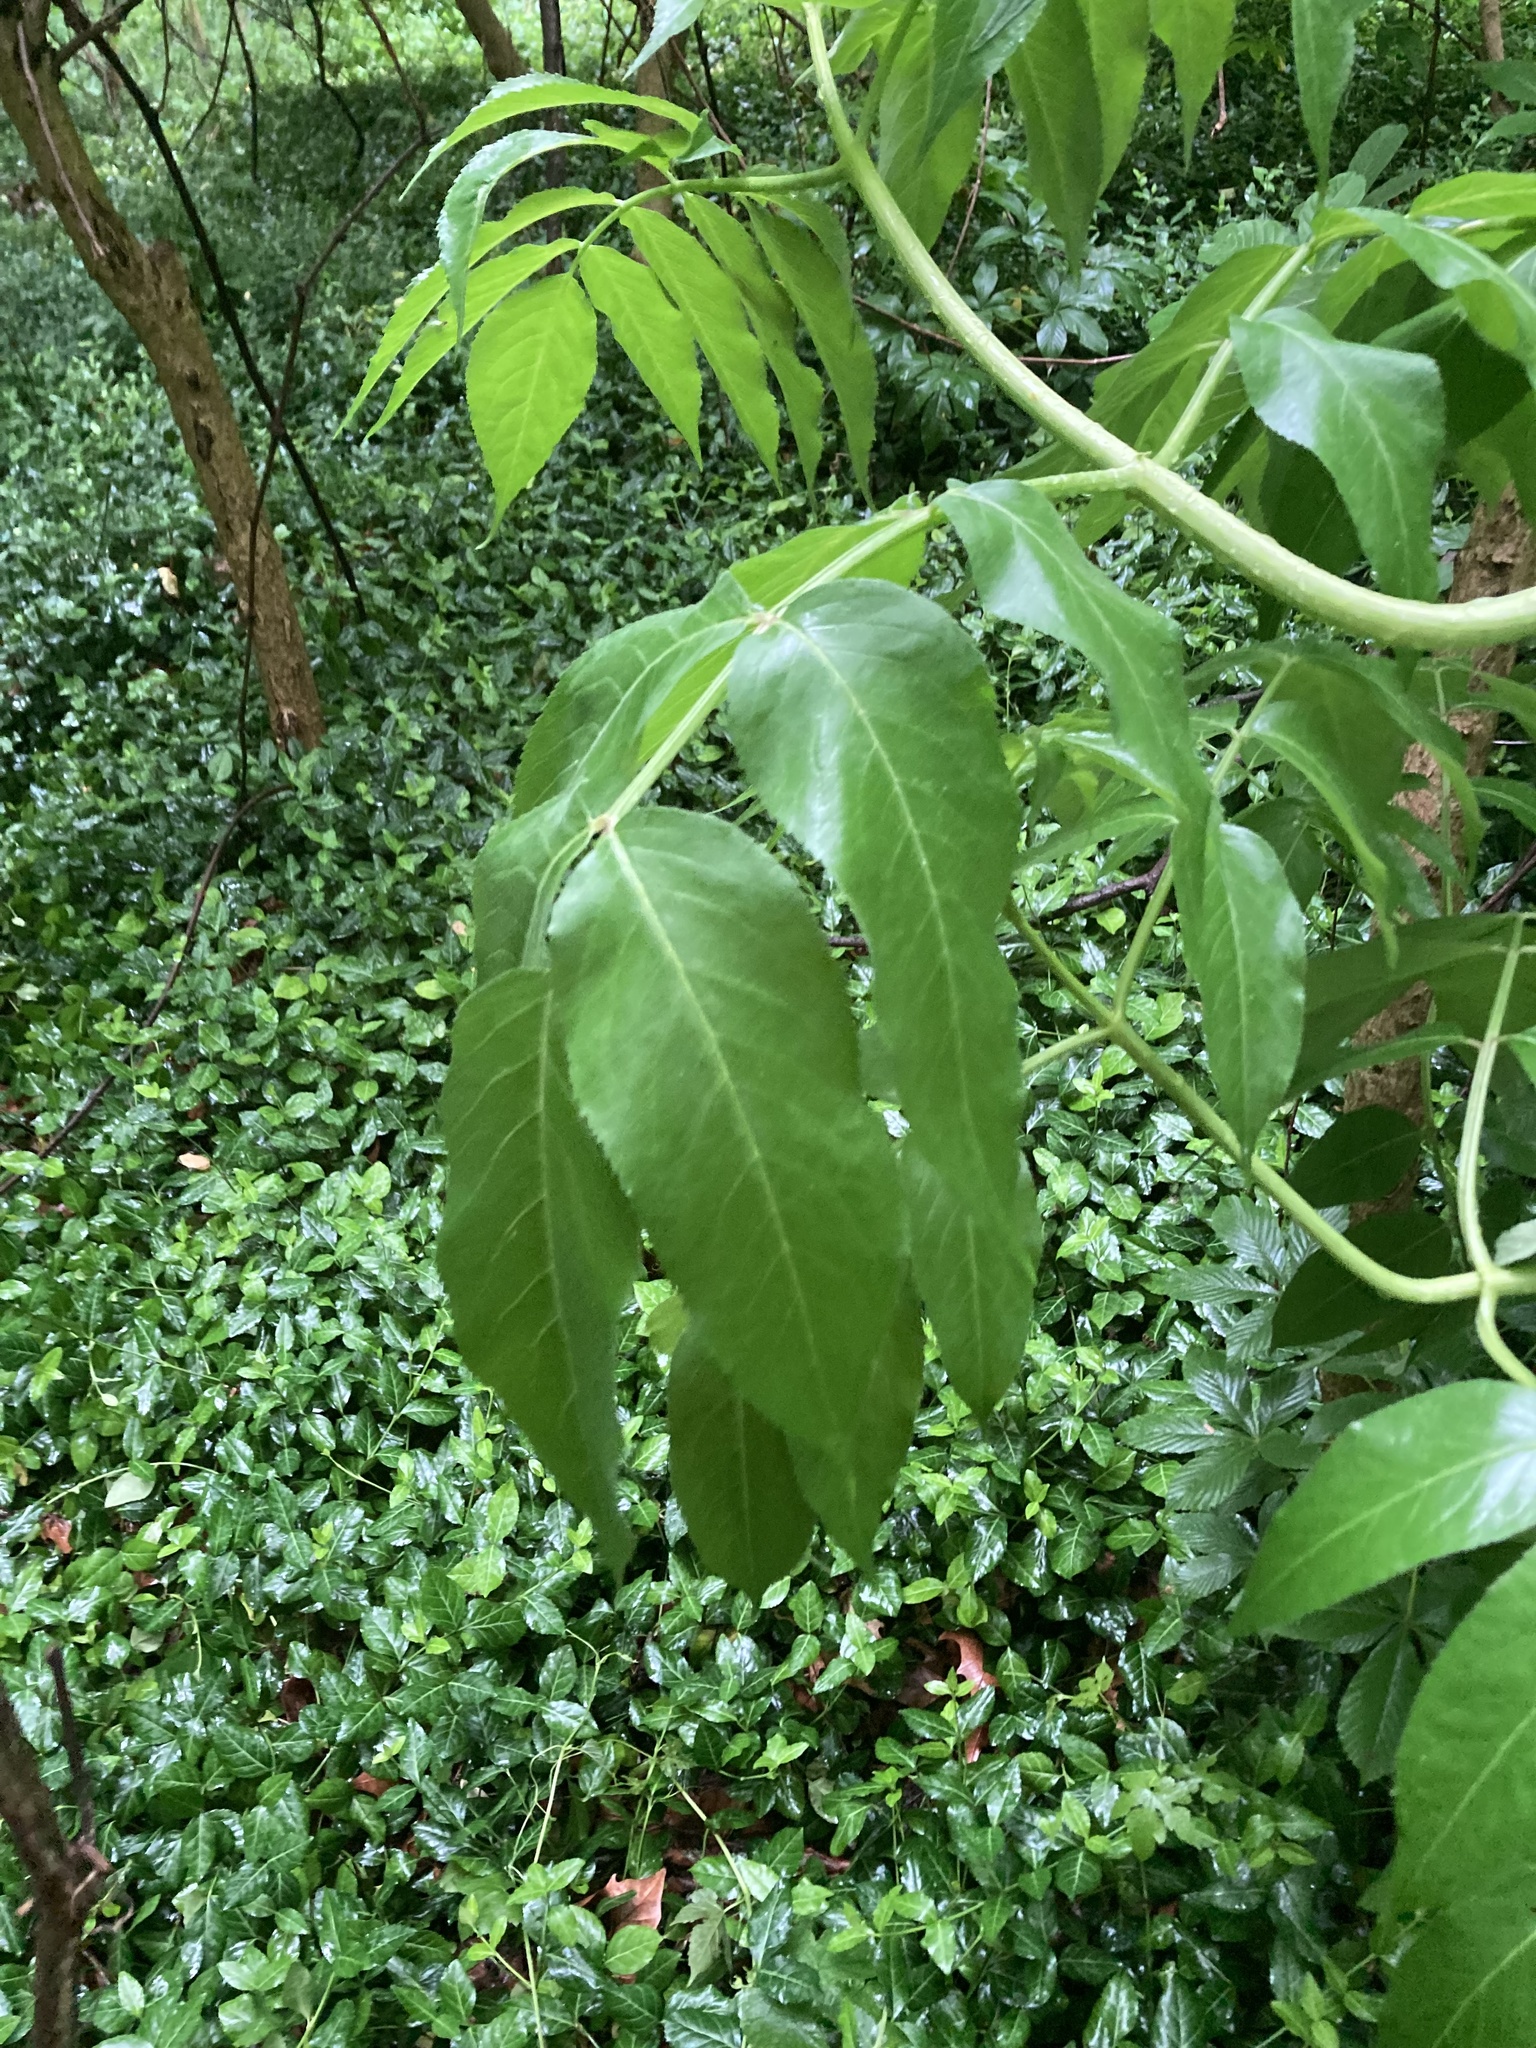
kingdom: Plantae
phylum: Tracheophyta
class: Magnoliopsida
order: Dipsacales
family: Viburnaceae
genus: Sambucus
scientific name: Sambucus canadensis
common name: American elder
